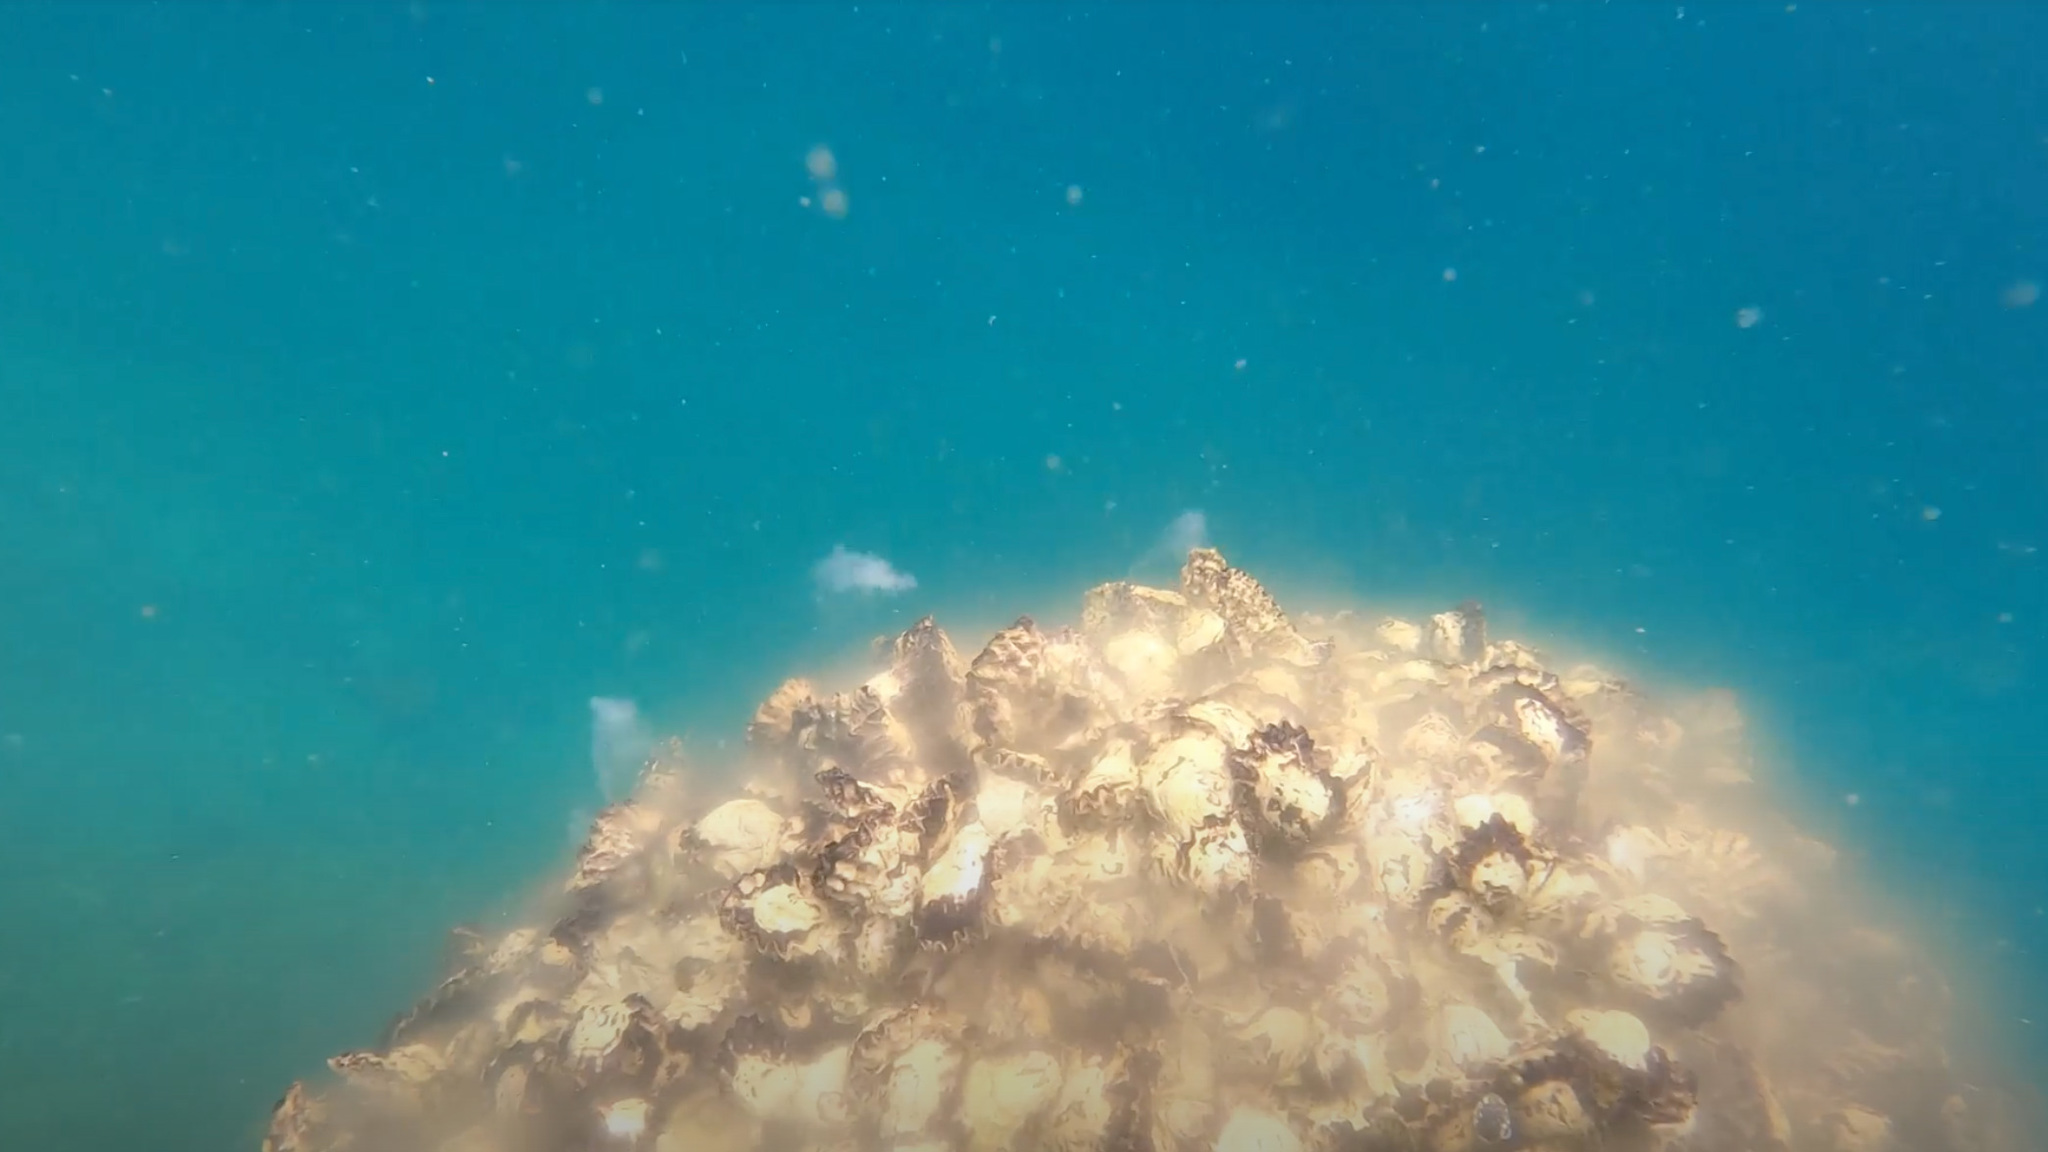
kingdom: Animalia
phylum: Mollusca
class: Bivalvia
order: Ostreida
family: Ostreidae
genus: Saccostrea
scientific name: Saccostrea glomerata
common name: Sydney cupped oyster
